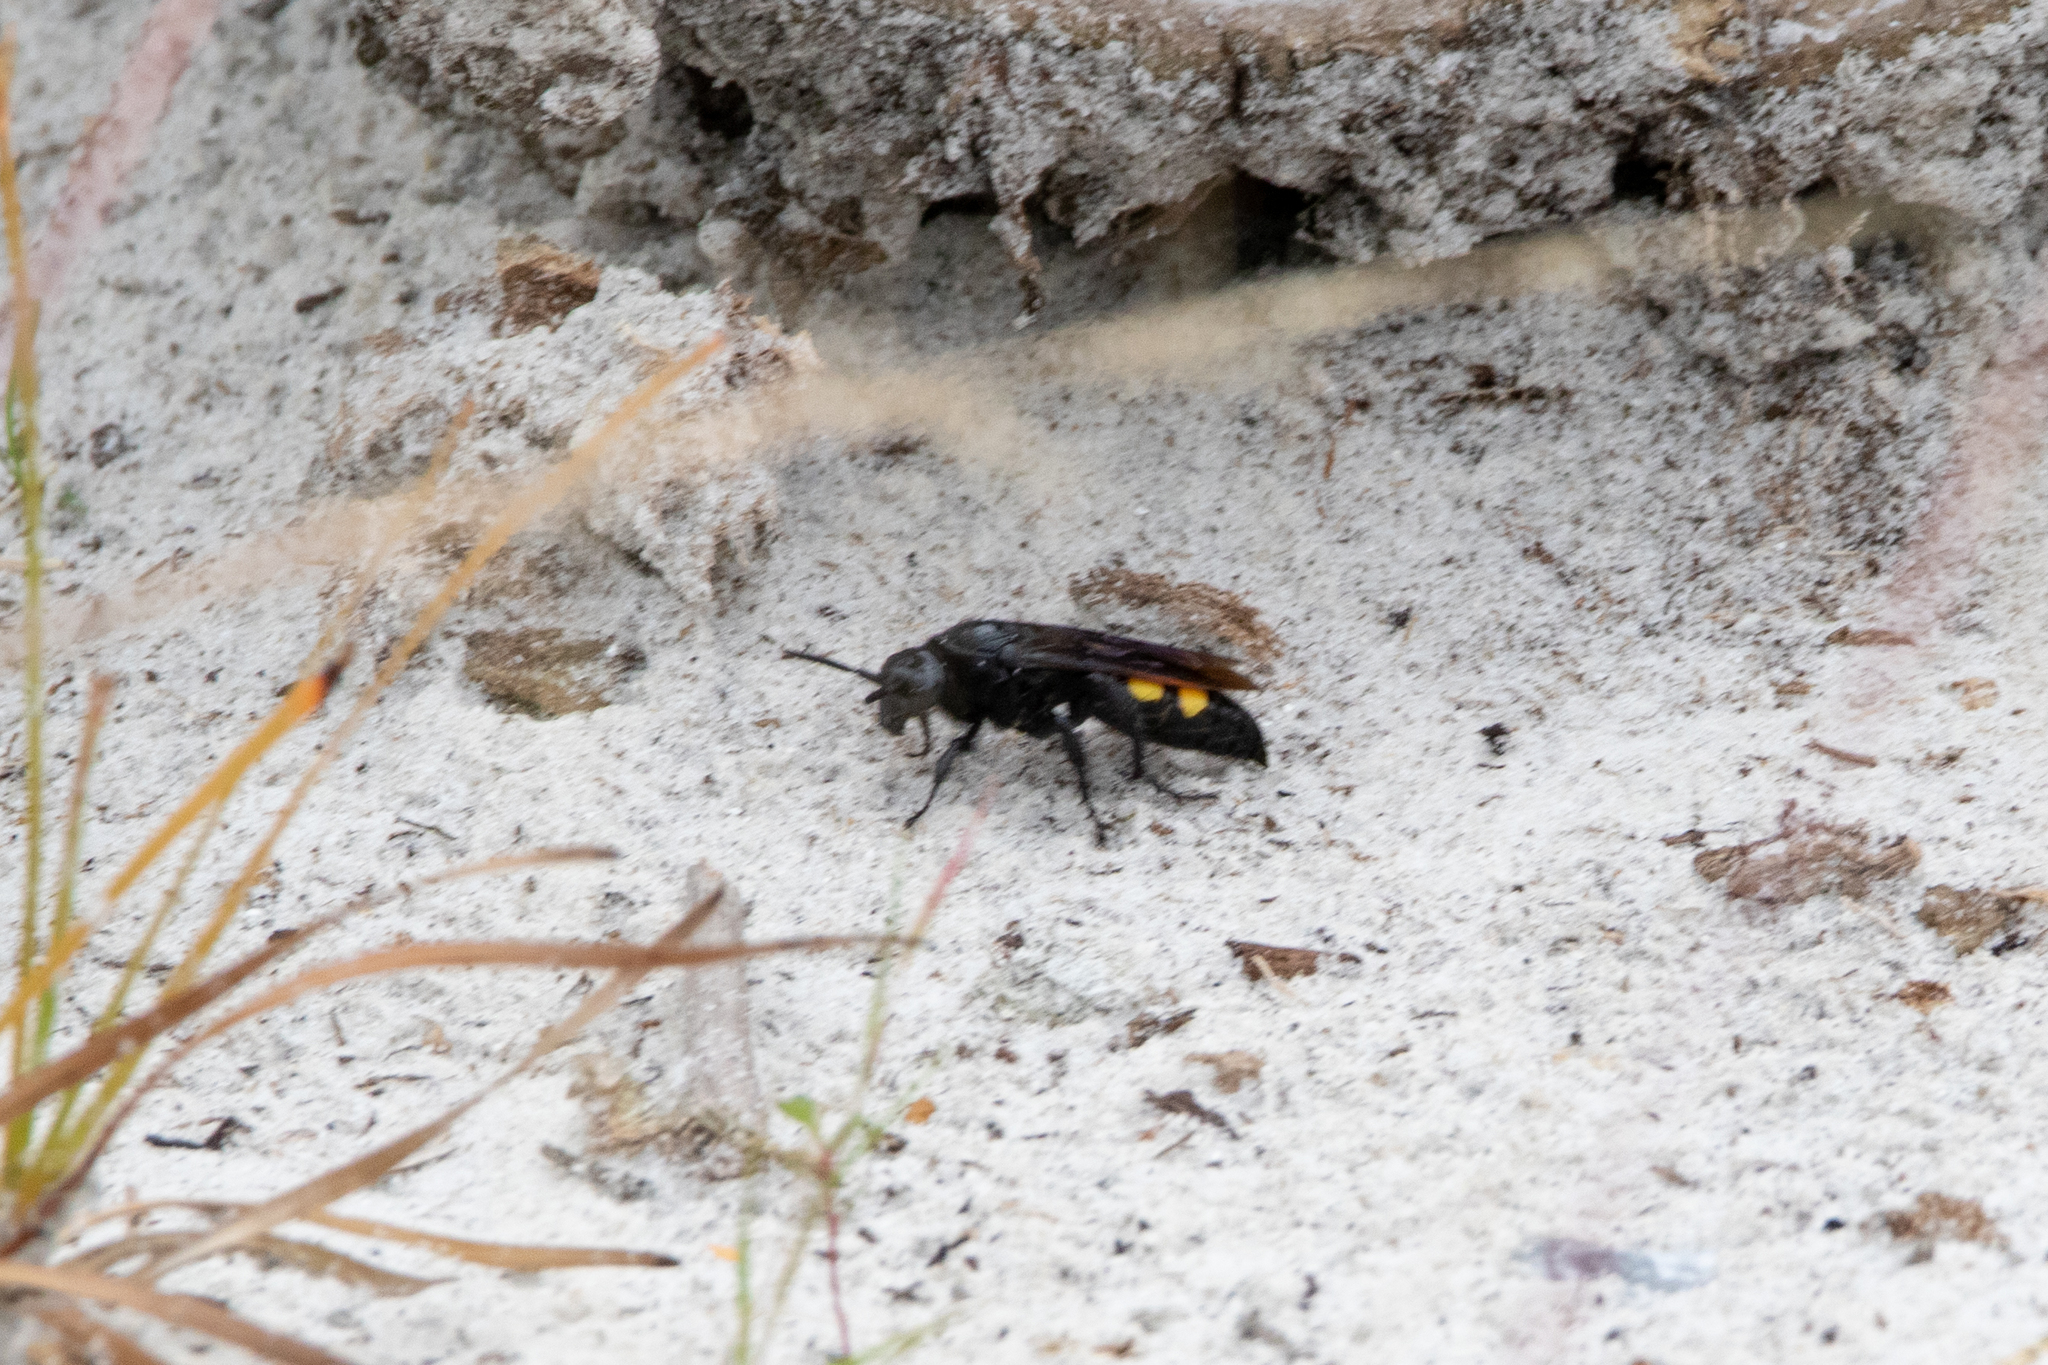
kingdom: Animalia
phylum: Arthropoda
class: Insecta
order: Hymenoptera
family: Scoliidae
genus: Pygodasis
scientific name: Pygodasis
